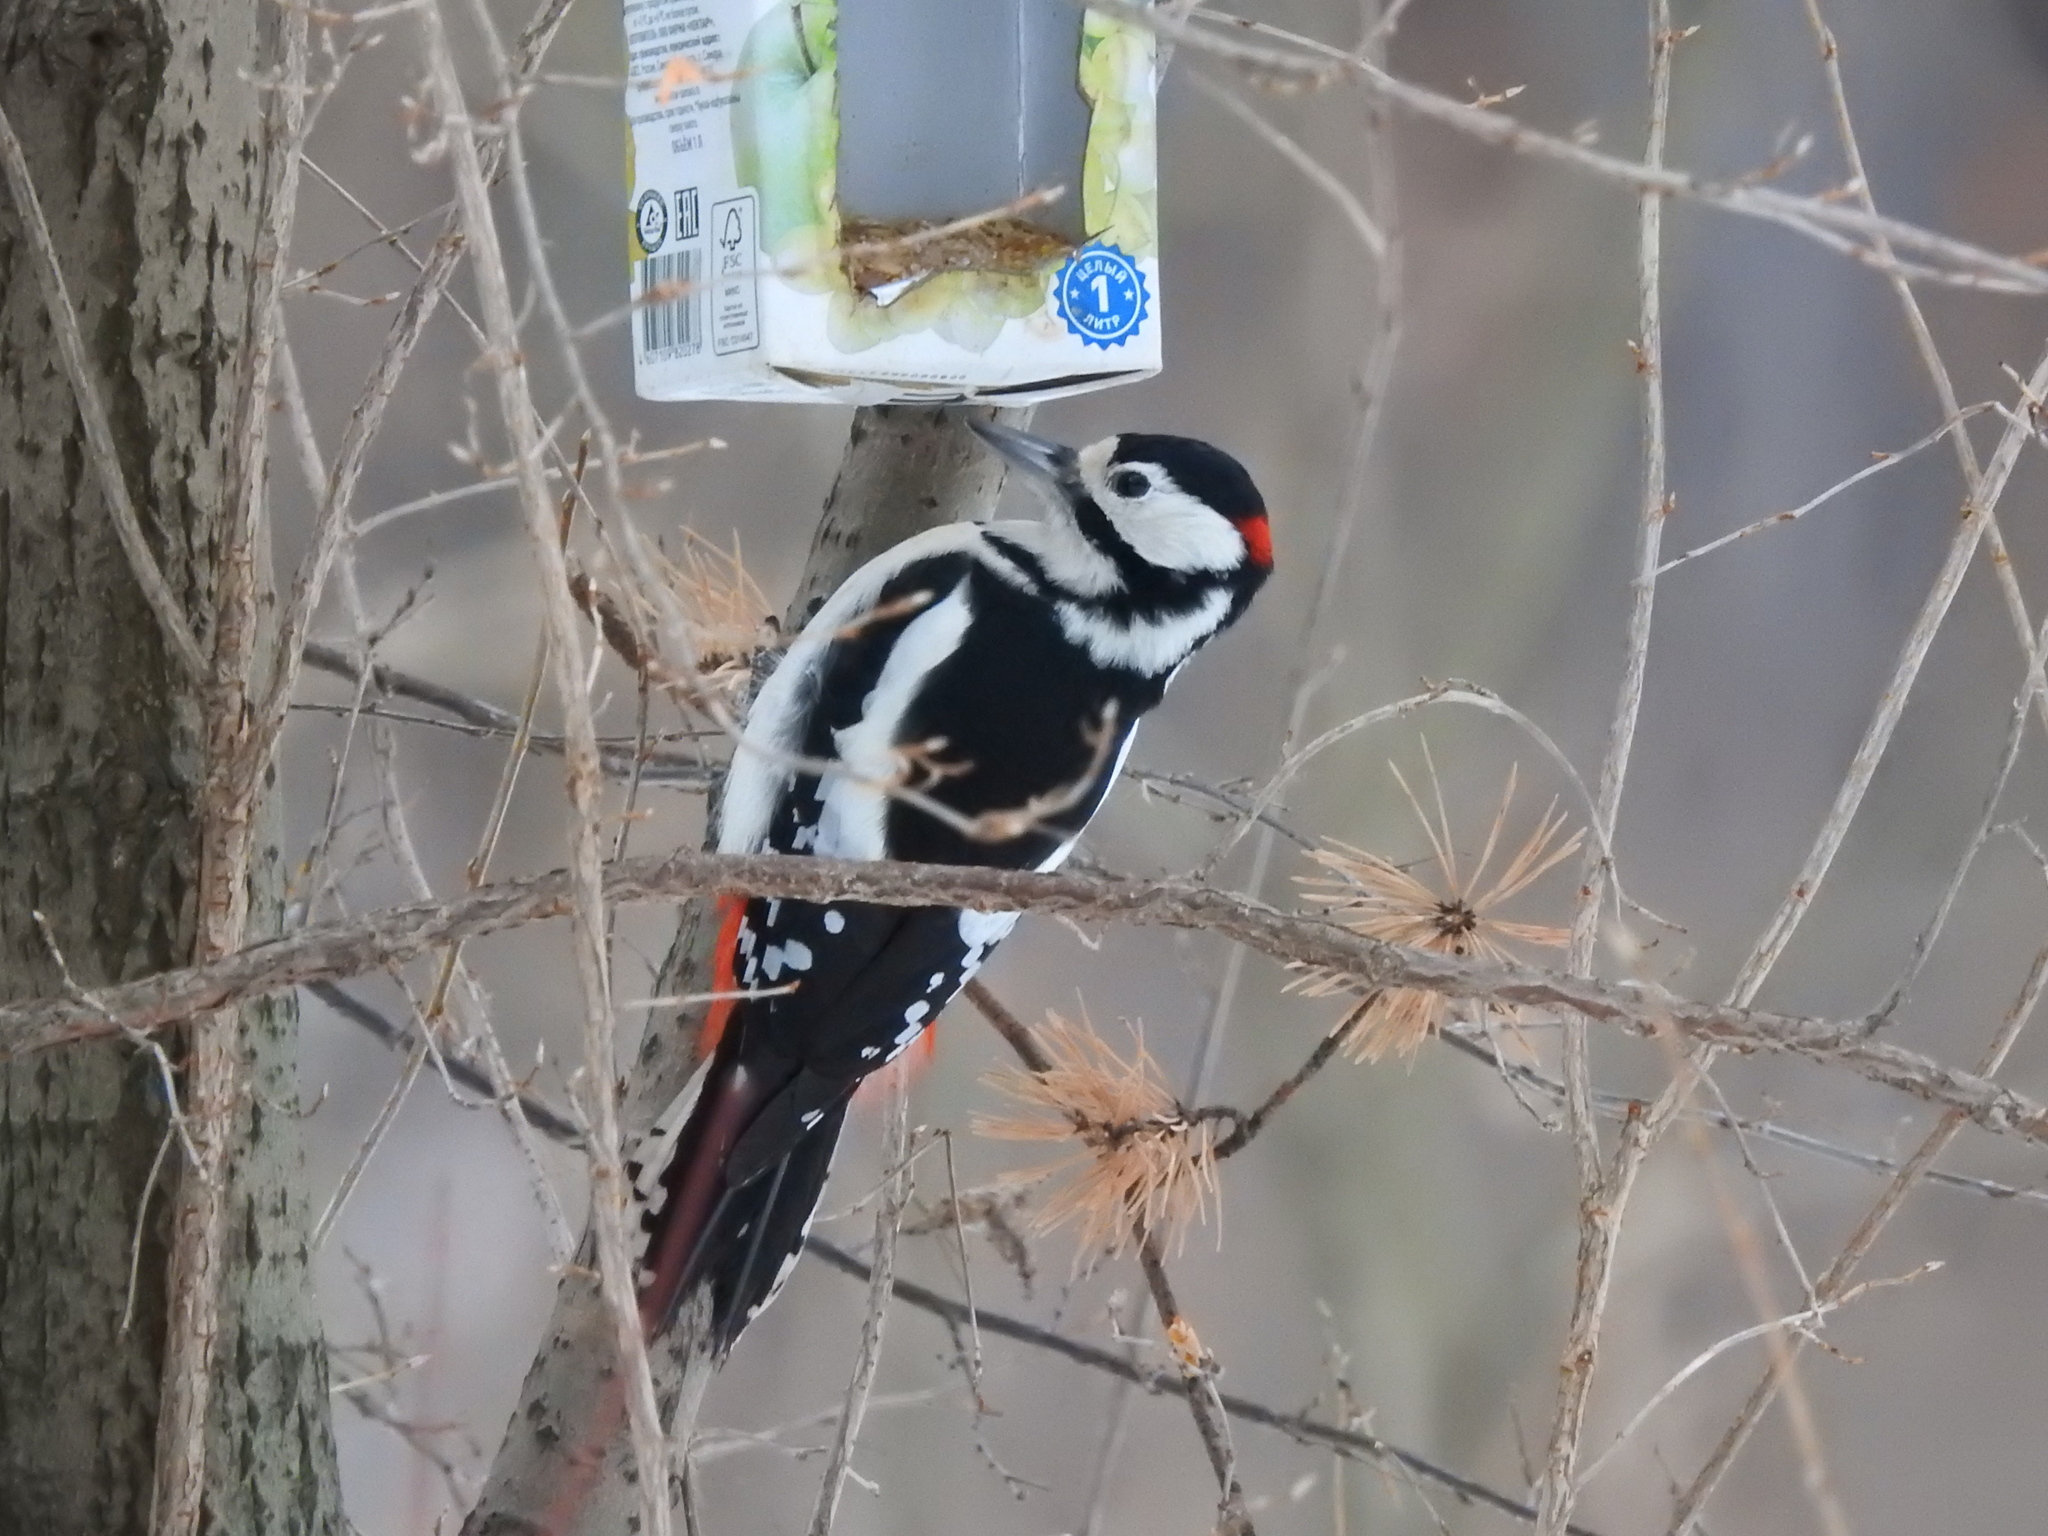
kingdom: Animalia
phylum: Chordata
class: Aves
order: Piciformes
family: Picidae
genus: Dendrocopos
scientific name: Dendrocopos major
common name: Great spotted woodpecker
